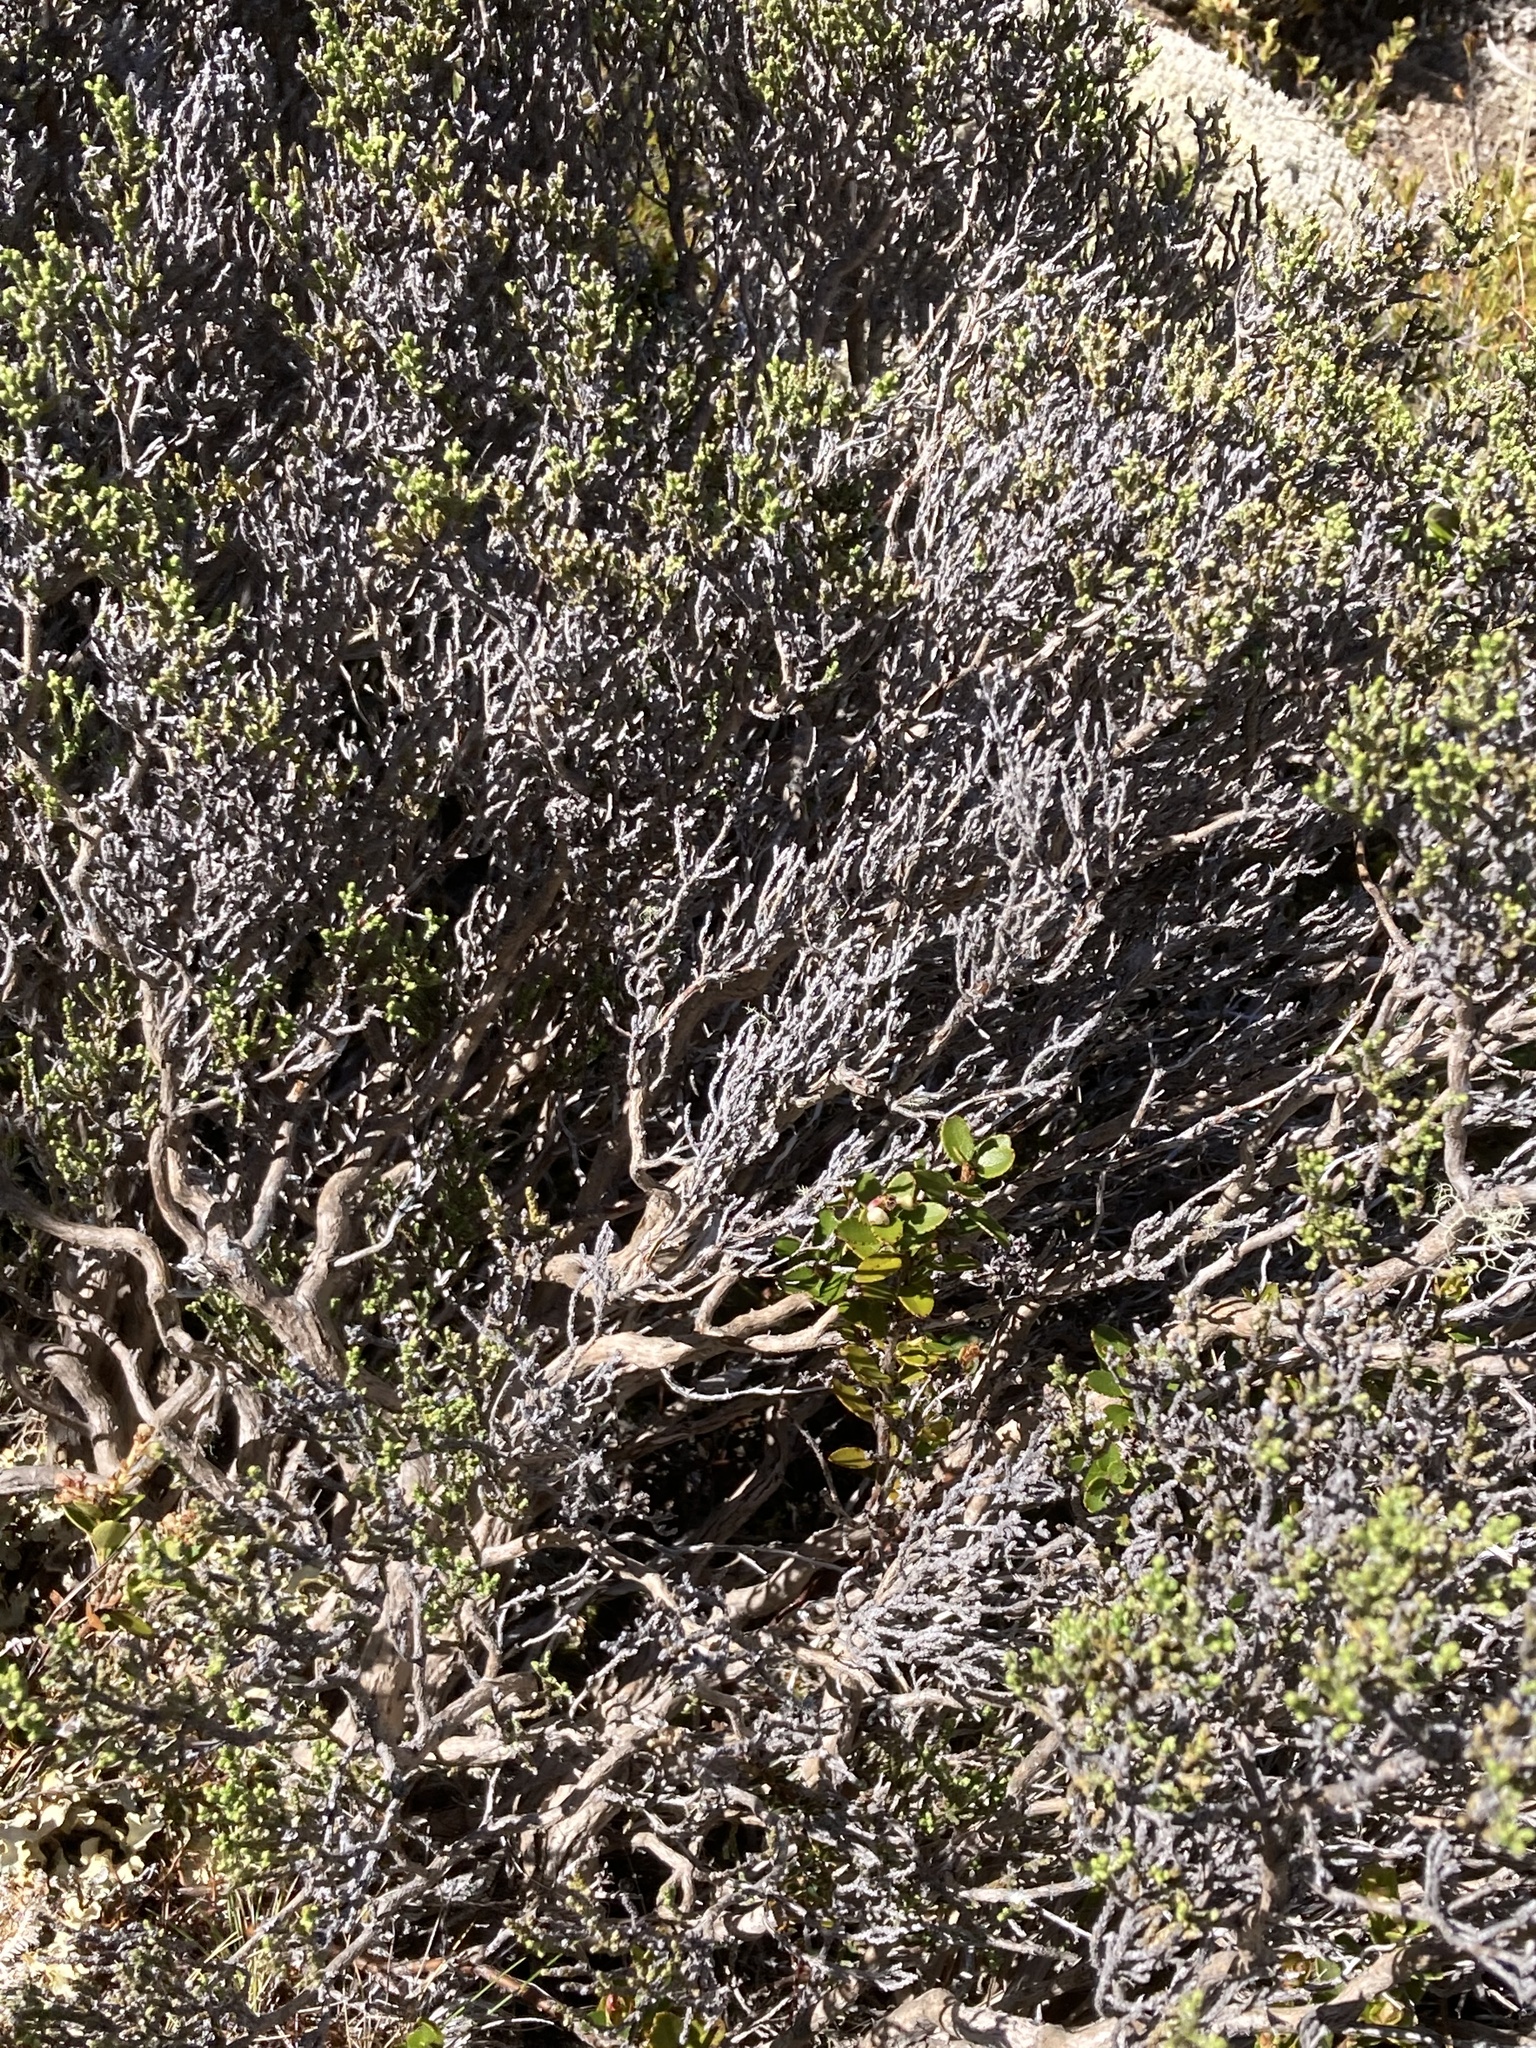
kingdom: Plantae
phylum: Tracheophyta
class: Magnoliopsida
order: Asterales
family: Asteraceae
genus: Ozothamnus
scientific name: Ozothamnus parvifolius
